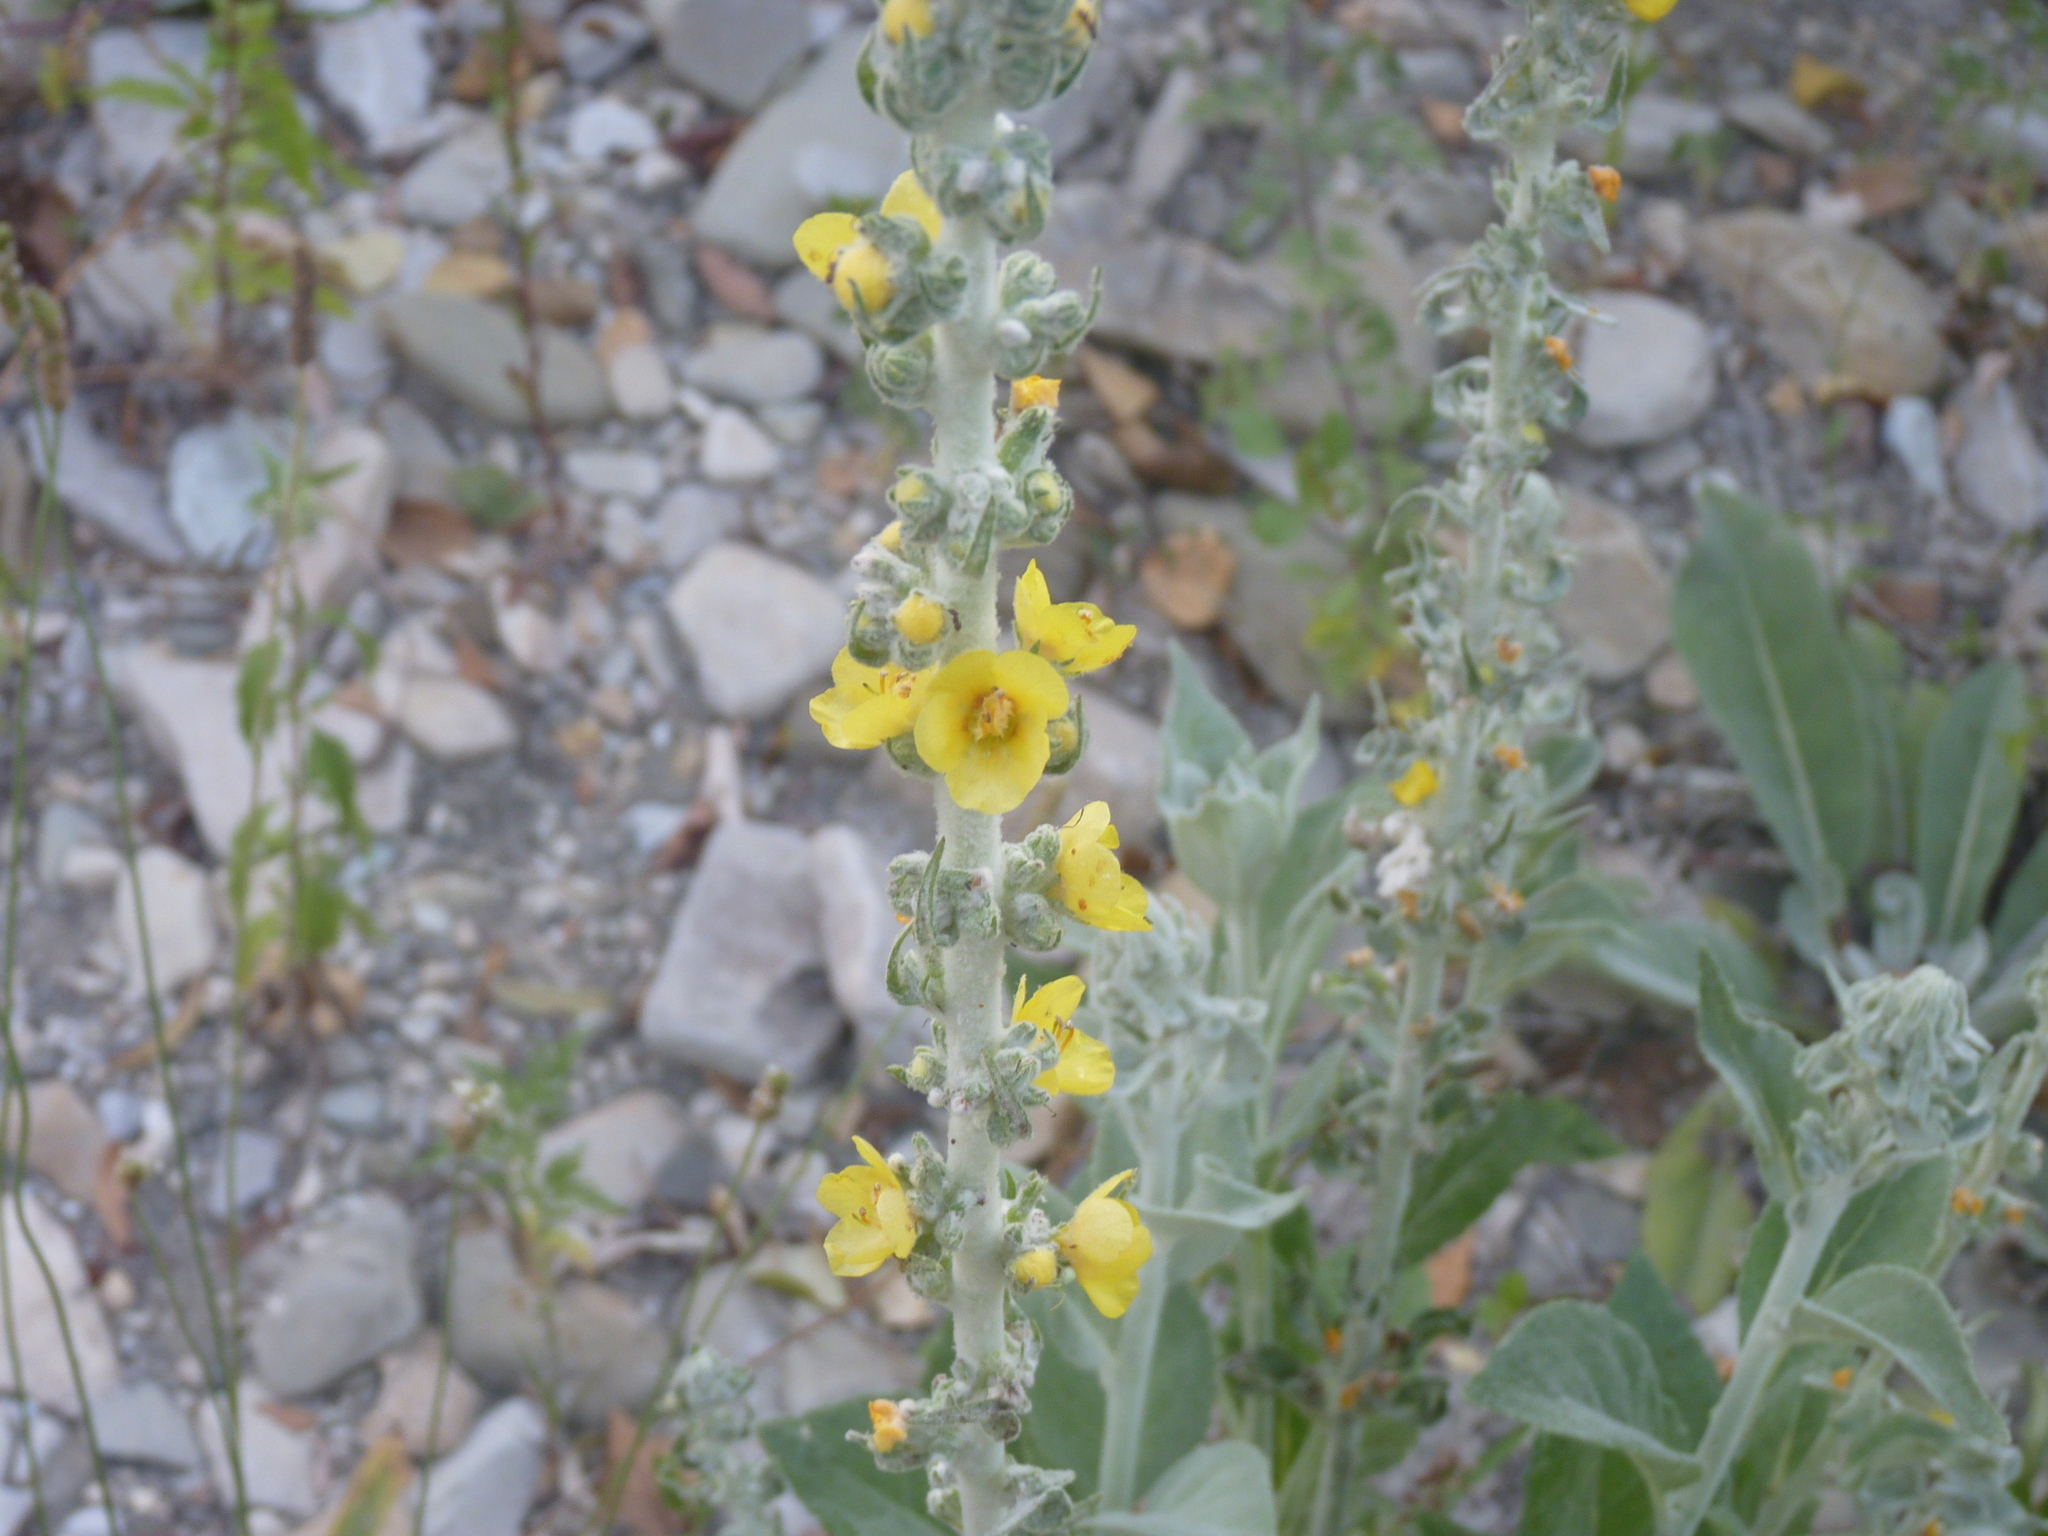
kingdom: Plantae
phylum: Tracheophyta
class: Magnoliopsida
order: Lamiales
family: Scrophulariaceae
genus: Verbascum
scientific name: Verbascum gnaphalodes
